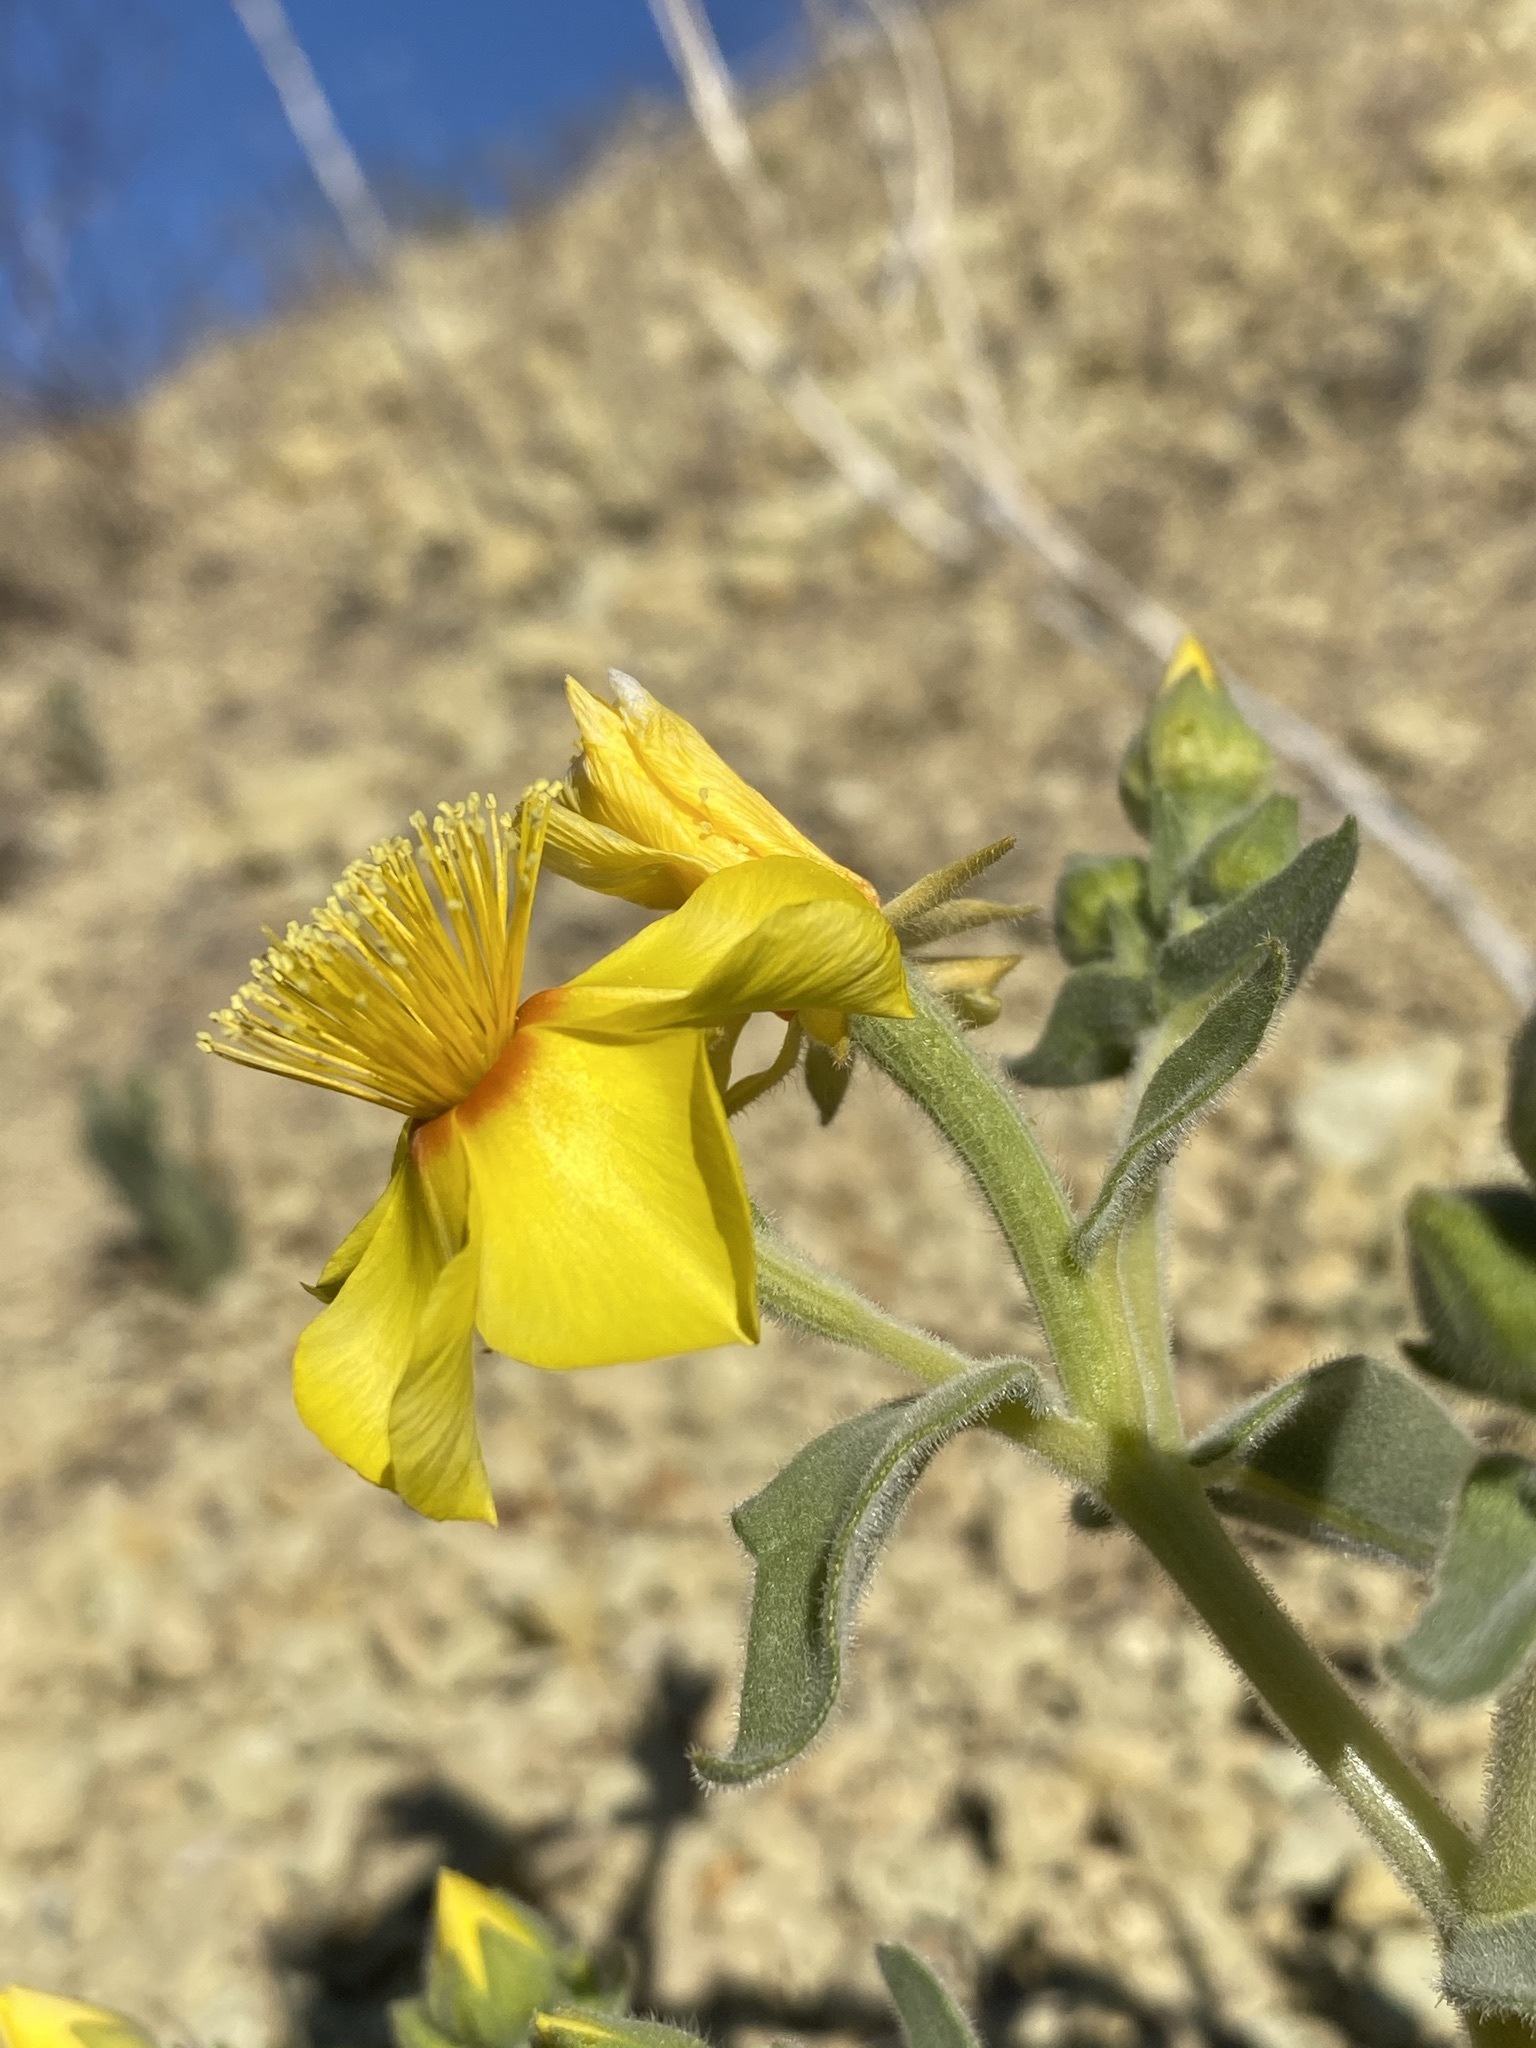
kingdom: Plantae
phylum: Tracheophyta
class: Magnoliopsida
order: Cornales
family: Loasaceae
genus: Mentzelia
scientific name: Mentzelia packardiae
